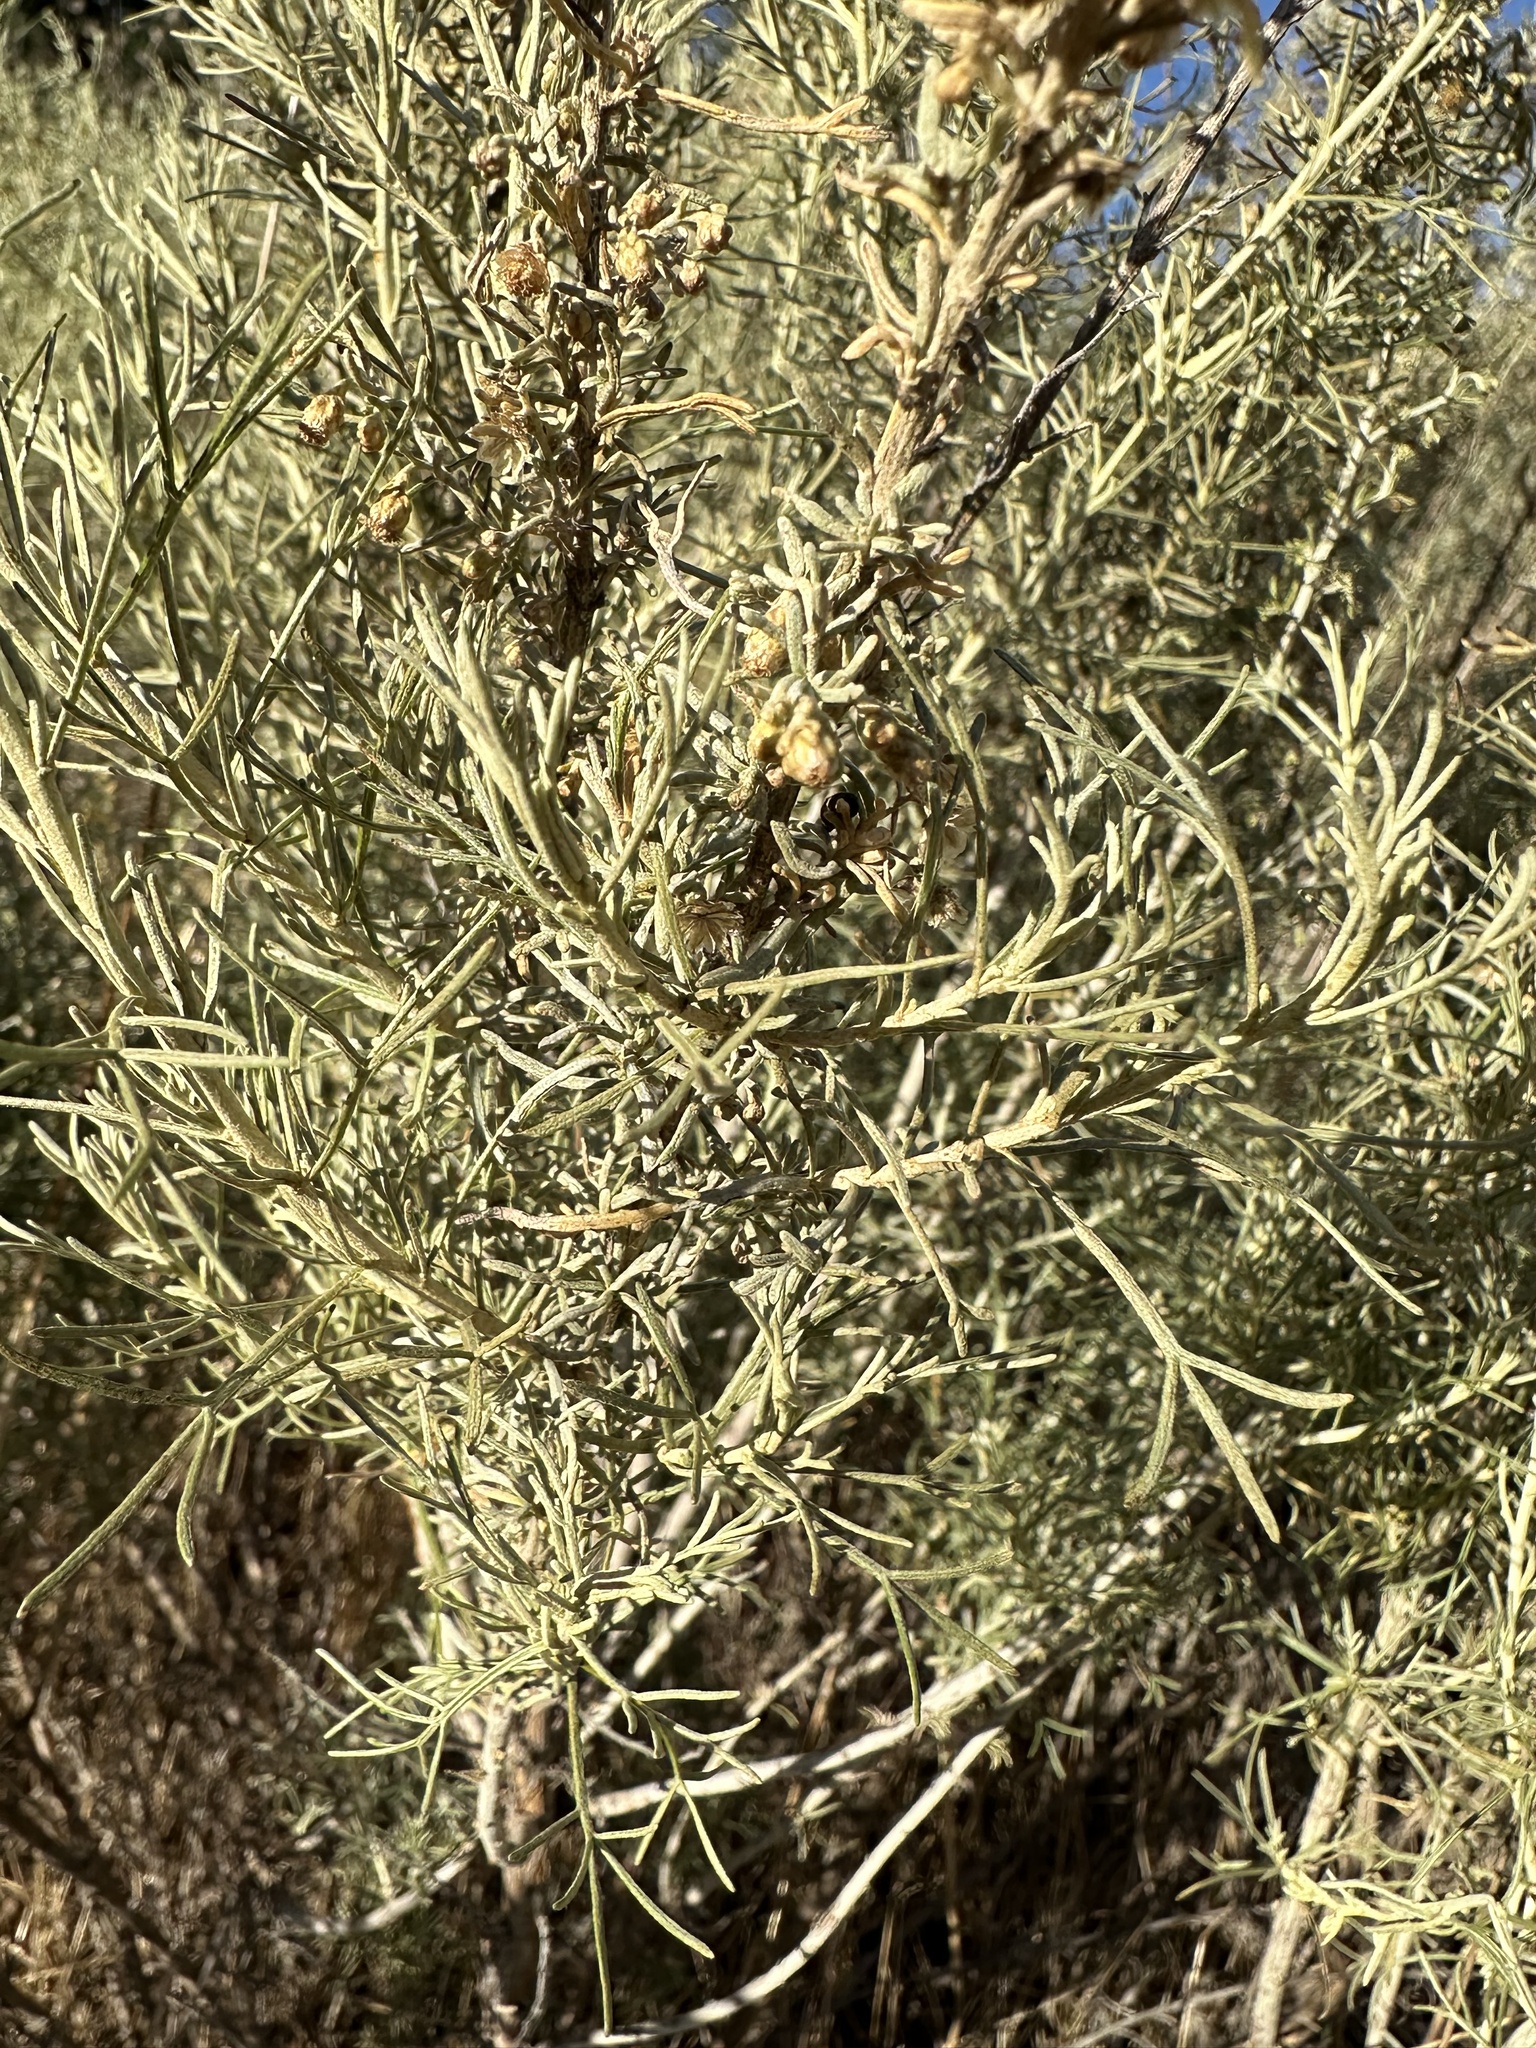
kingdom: Plantae
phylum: Tracheophyta
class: Magnoliopsida
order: Asterales
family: Asteraceae
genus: Artemisia
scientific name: Artemisia californica
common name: California sagebrush
